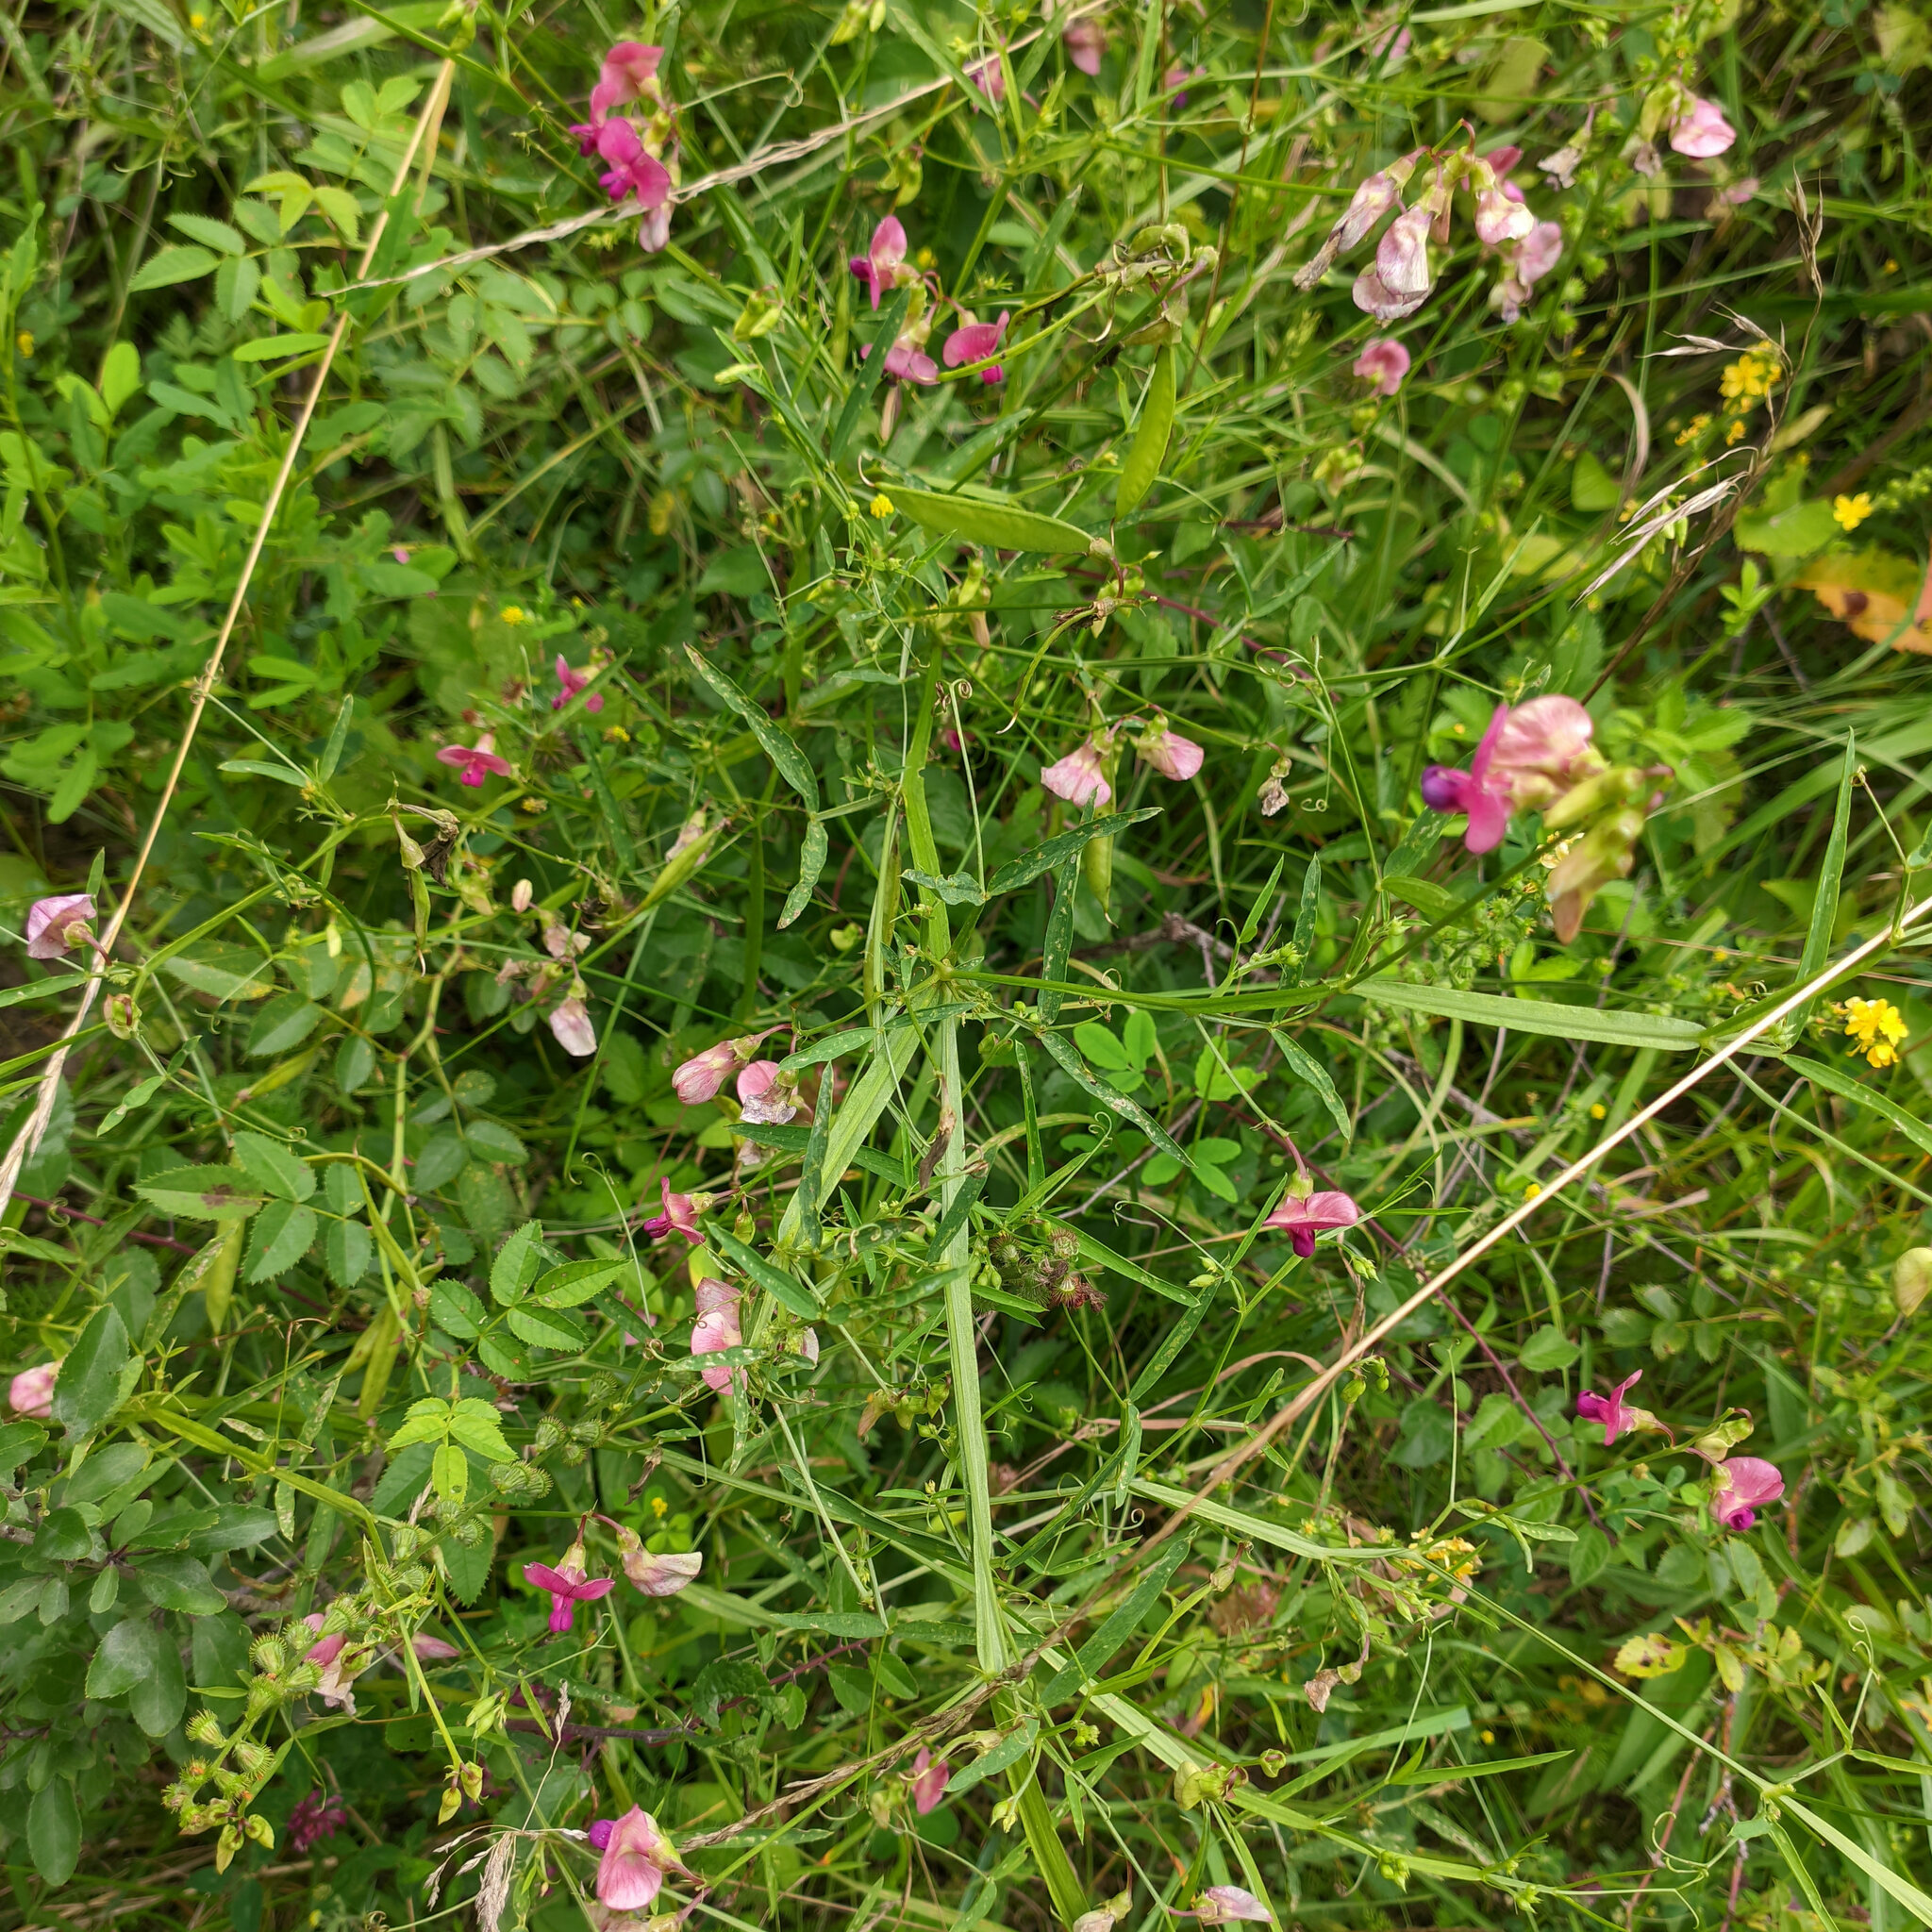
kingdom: Plantae
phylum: Tracheophyta
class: Magnoliopsida
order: Fabales
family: Fabaceae
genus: Lathyrus
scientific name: Lathyrus sylvestris
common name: Flat pea
